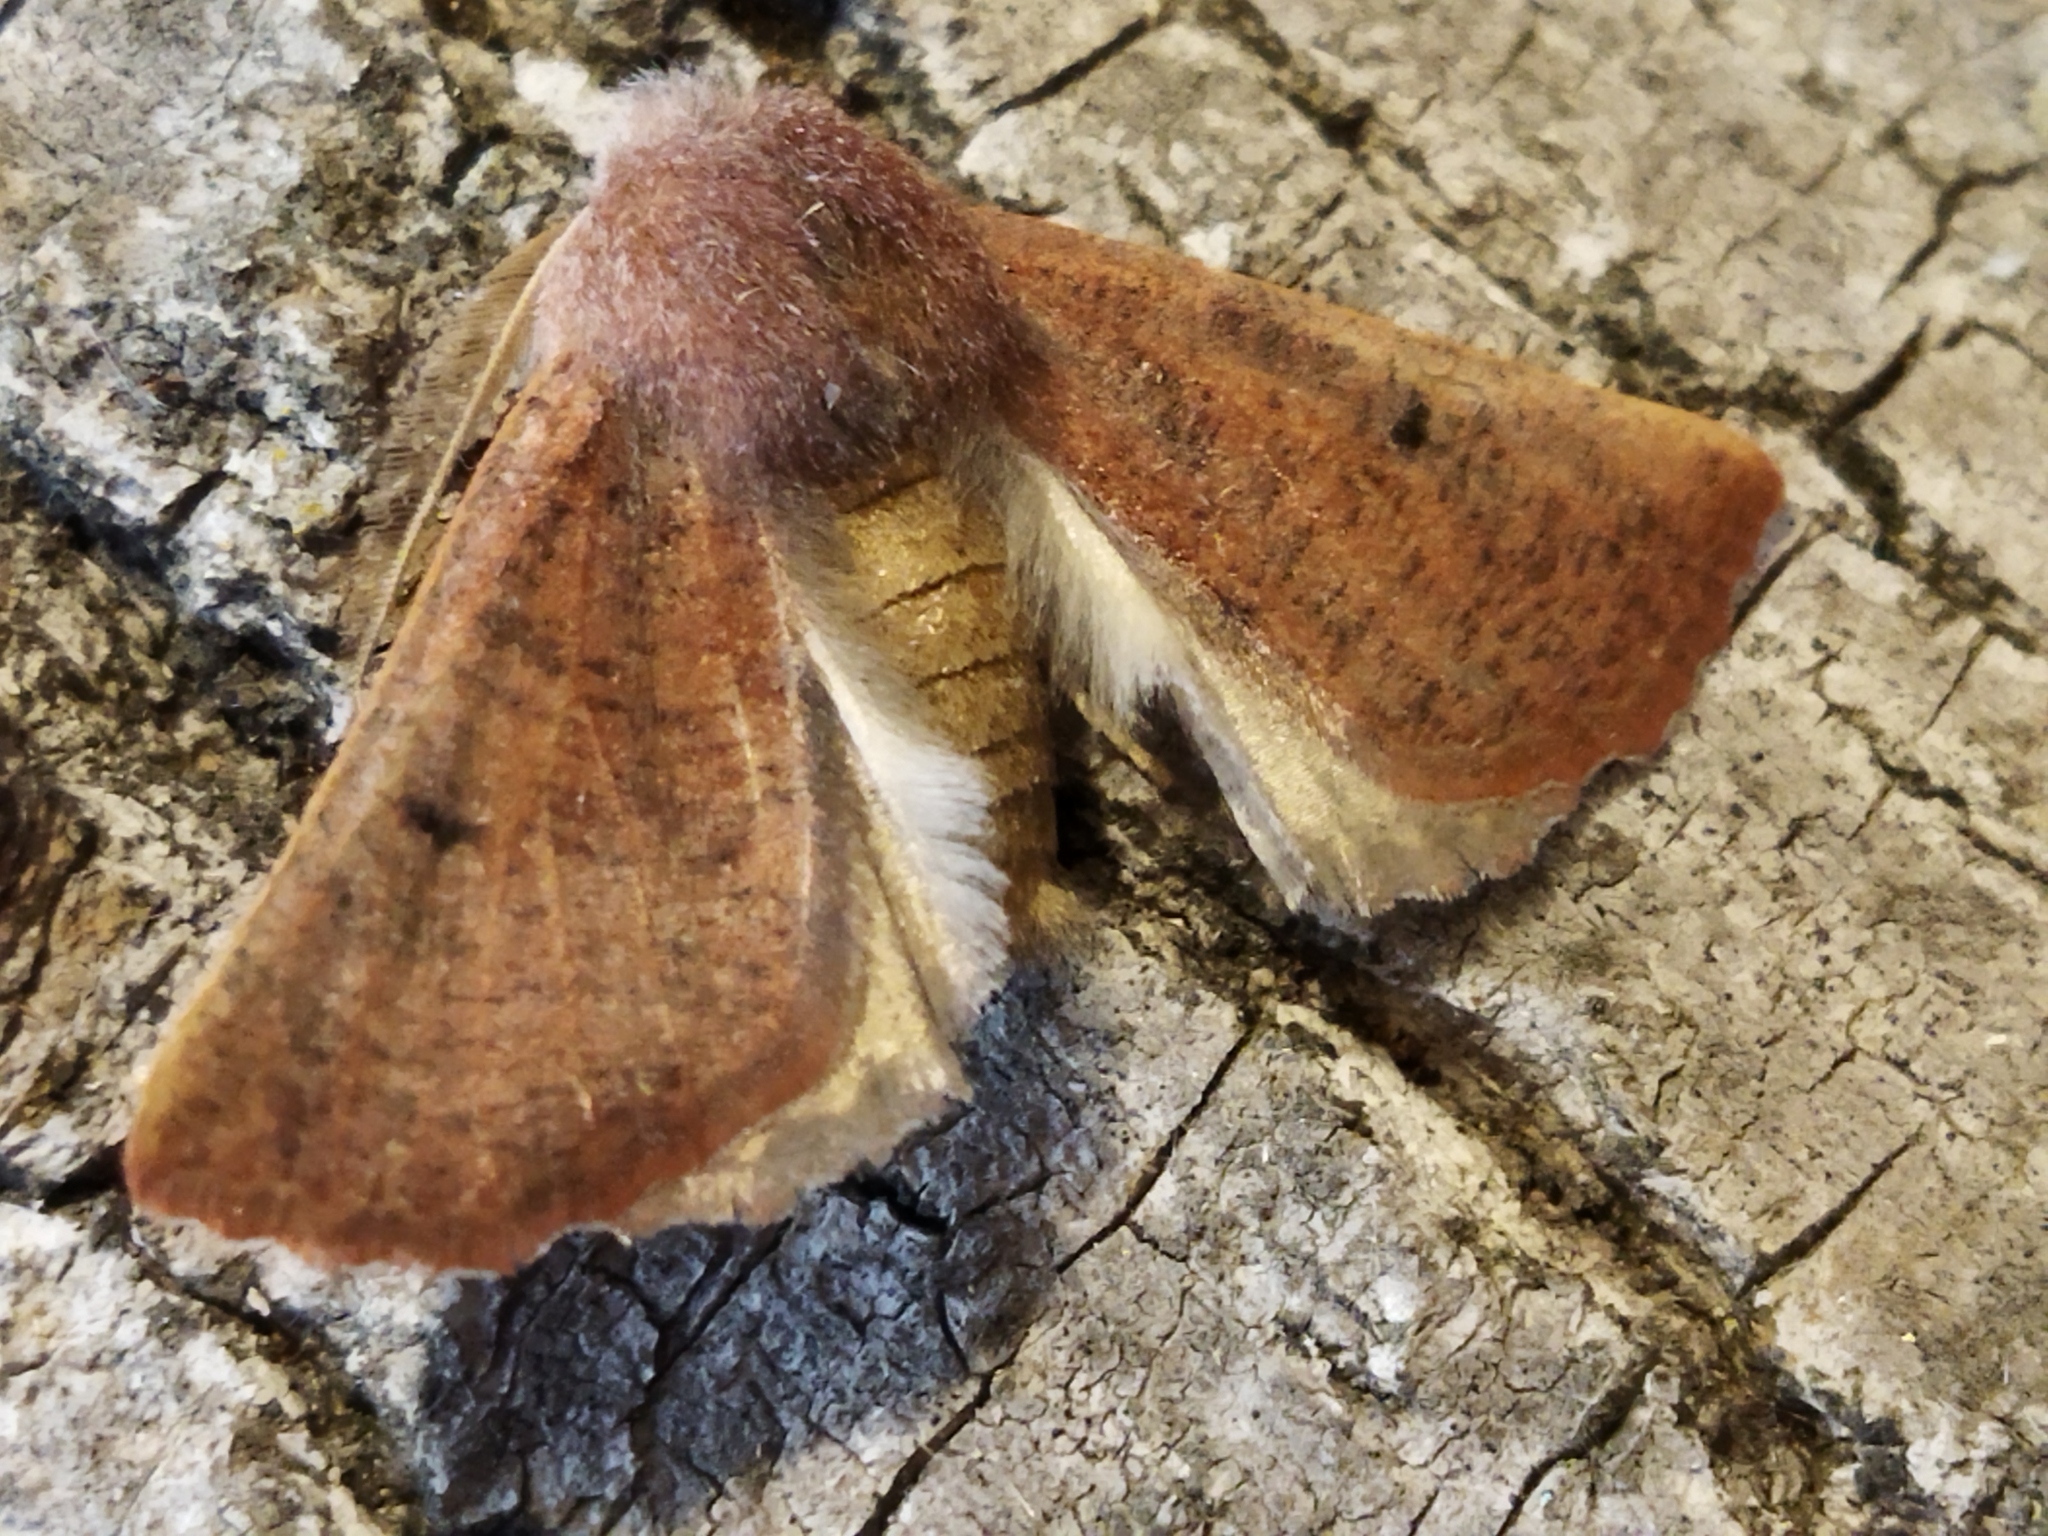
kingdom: Animalia
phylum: Arthropoda
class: Insecta
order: Lepidoptera
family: Geometridae
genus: Dasycorsa
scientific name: Dasycorsa modesta
